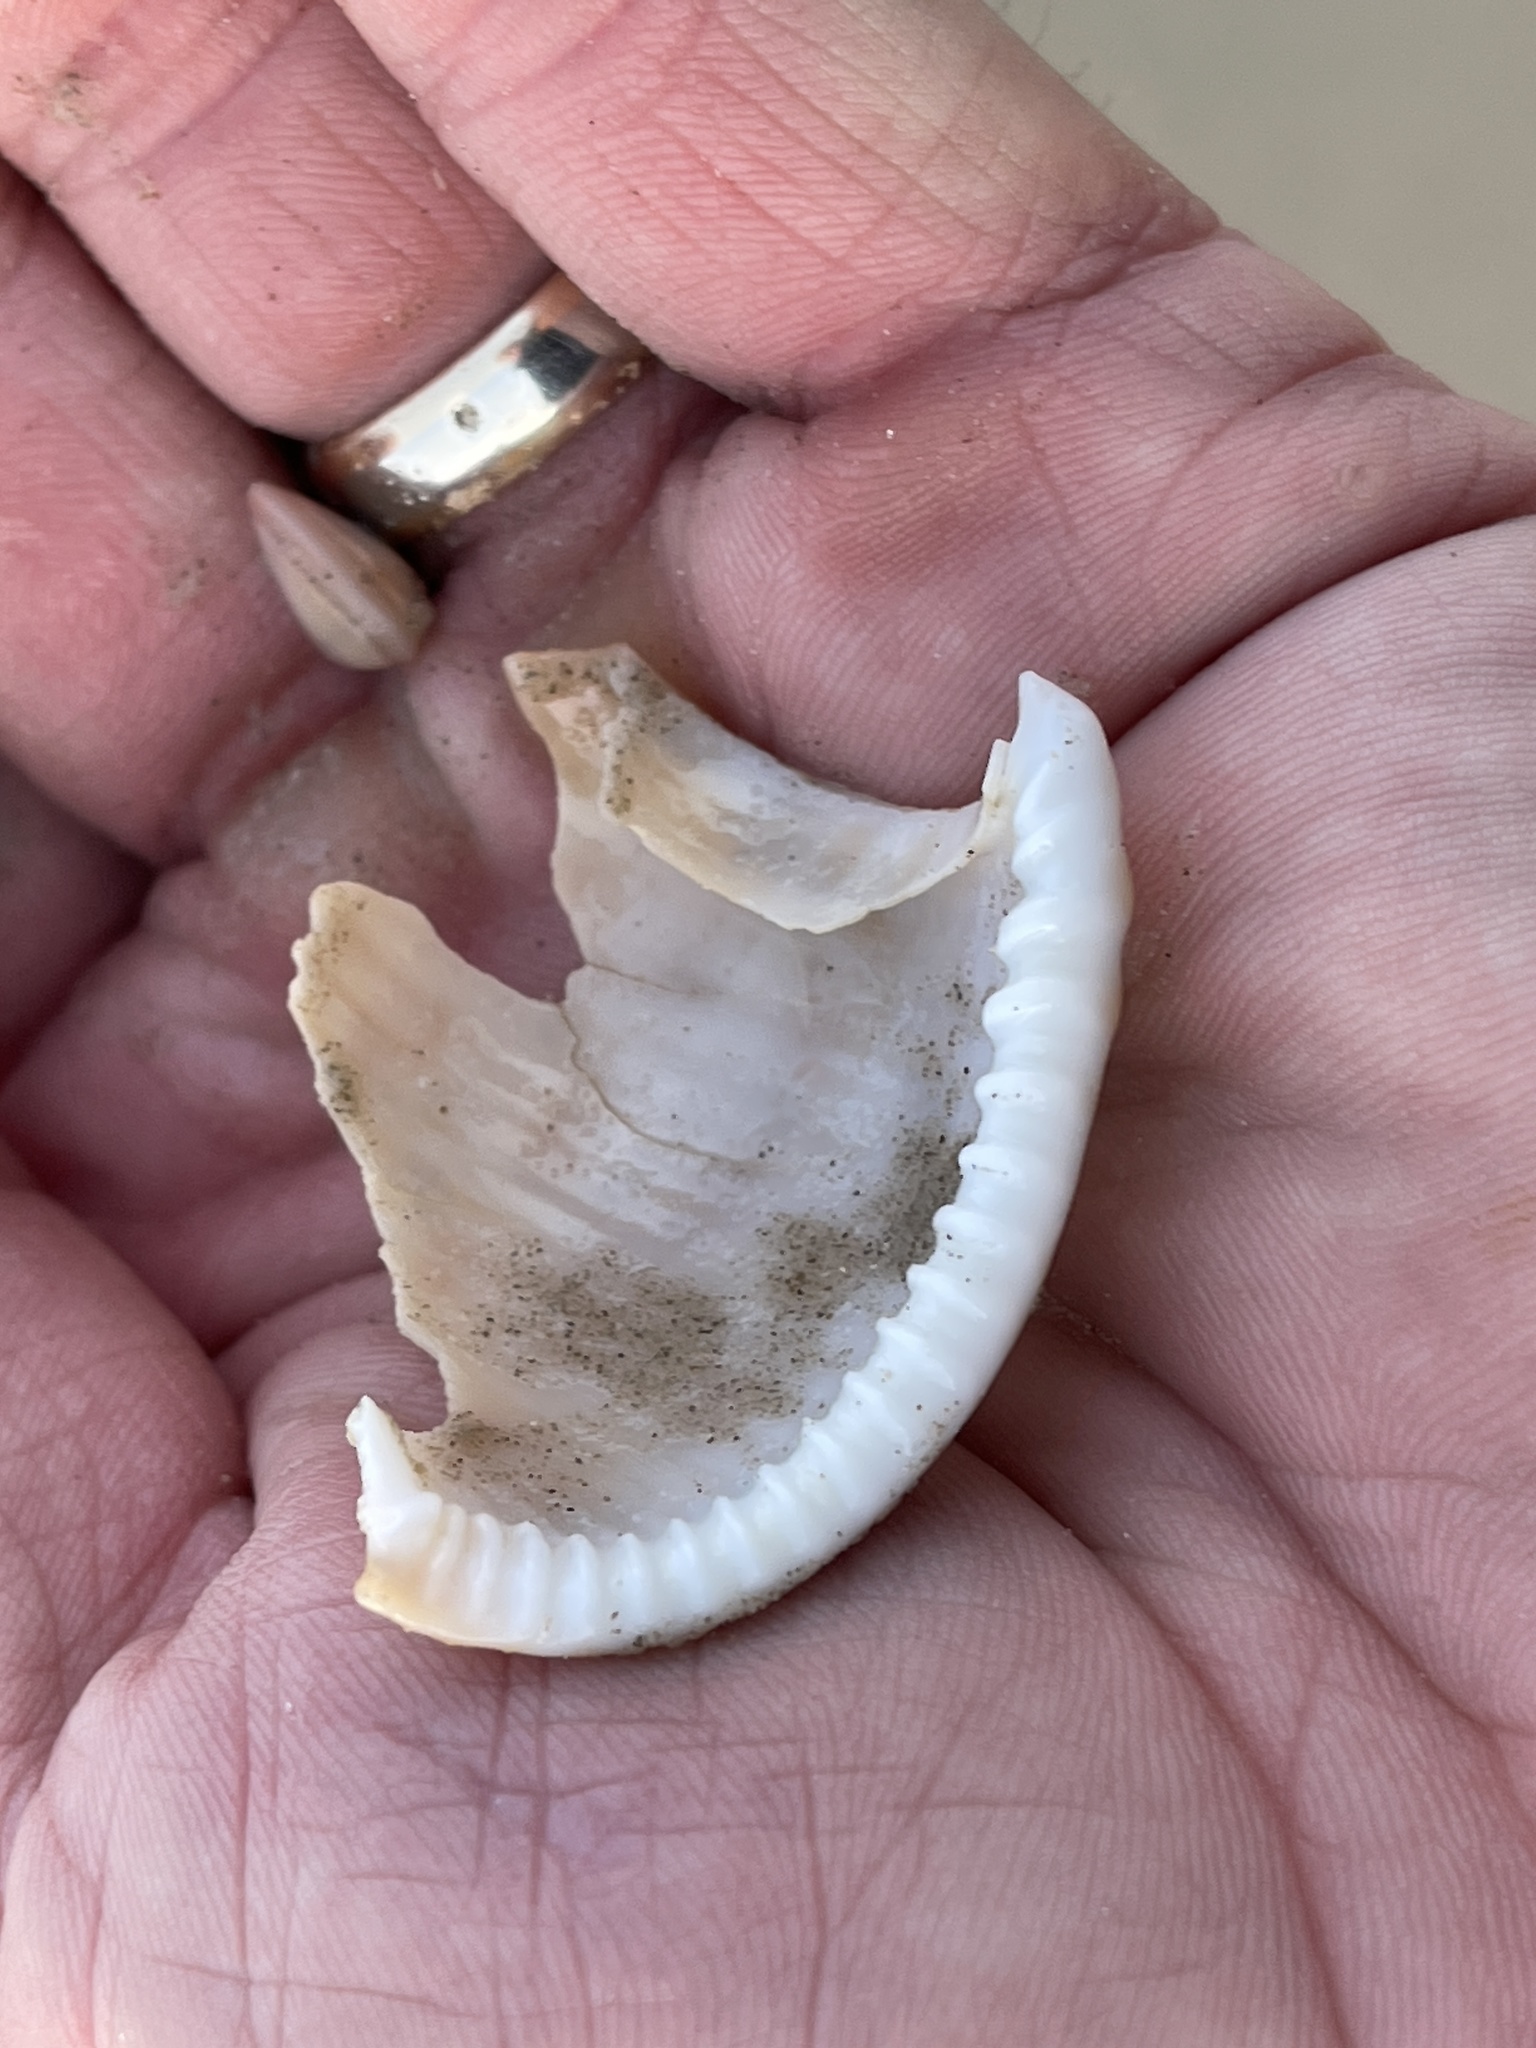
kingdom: Animalia
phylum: Mollusca
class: Gastropoda
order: Littorinimorpha
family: Cassidae
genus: Semicassis
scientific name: Semicassis granulata
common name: Scotch bonnet
